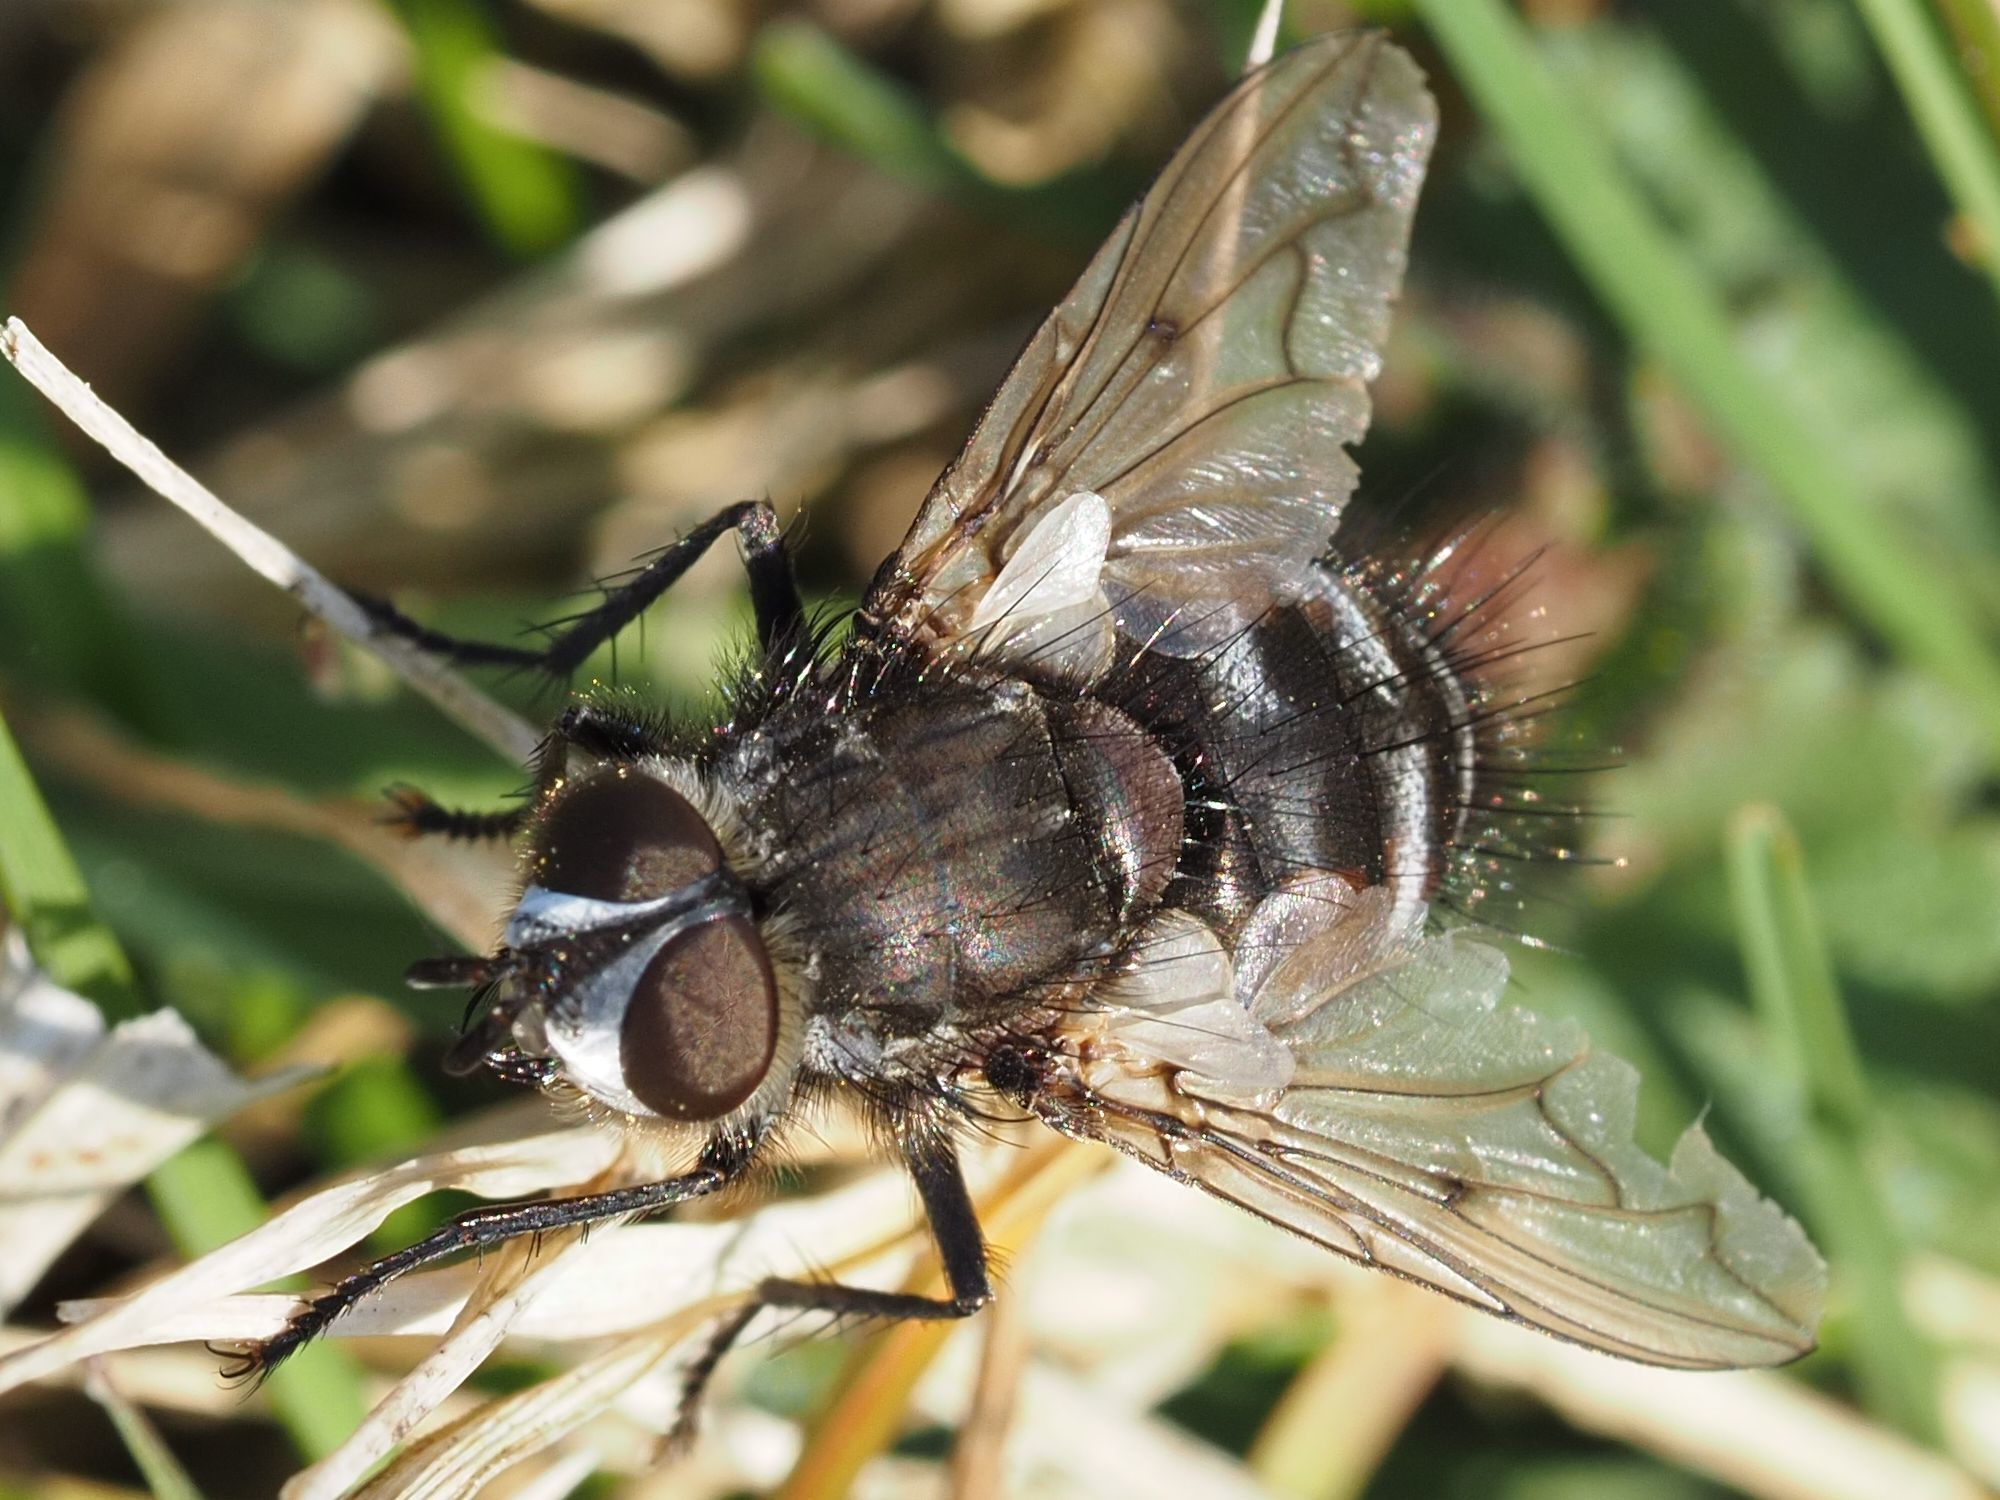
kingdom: Animalia
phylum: Arthropoda
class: Insecta
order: Diptera
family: Tachinidae
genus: Panzeria
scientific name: Panzeria puparum
